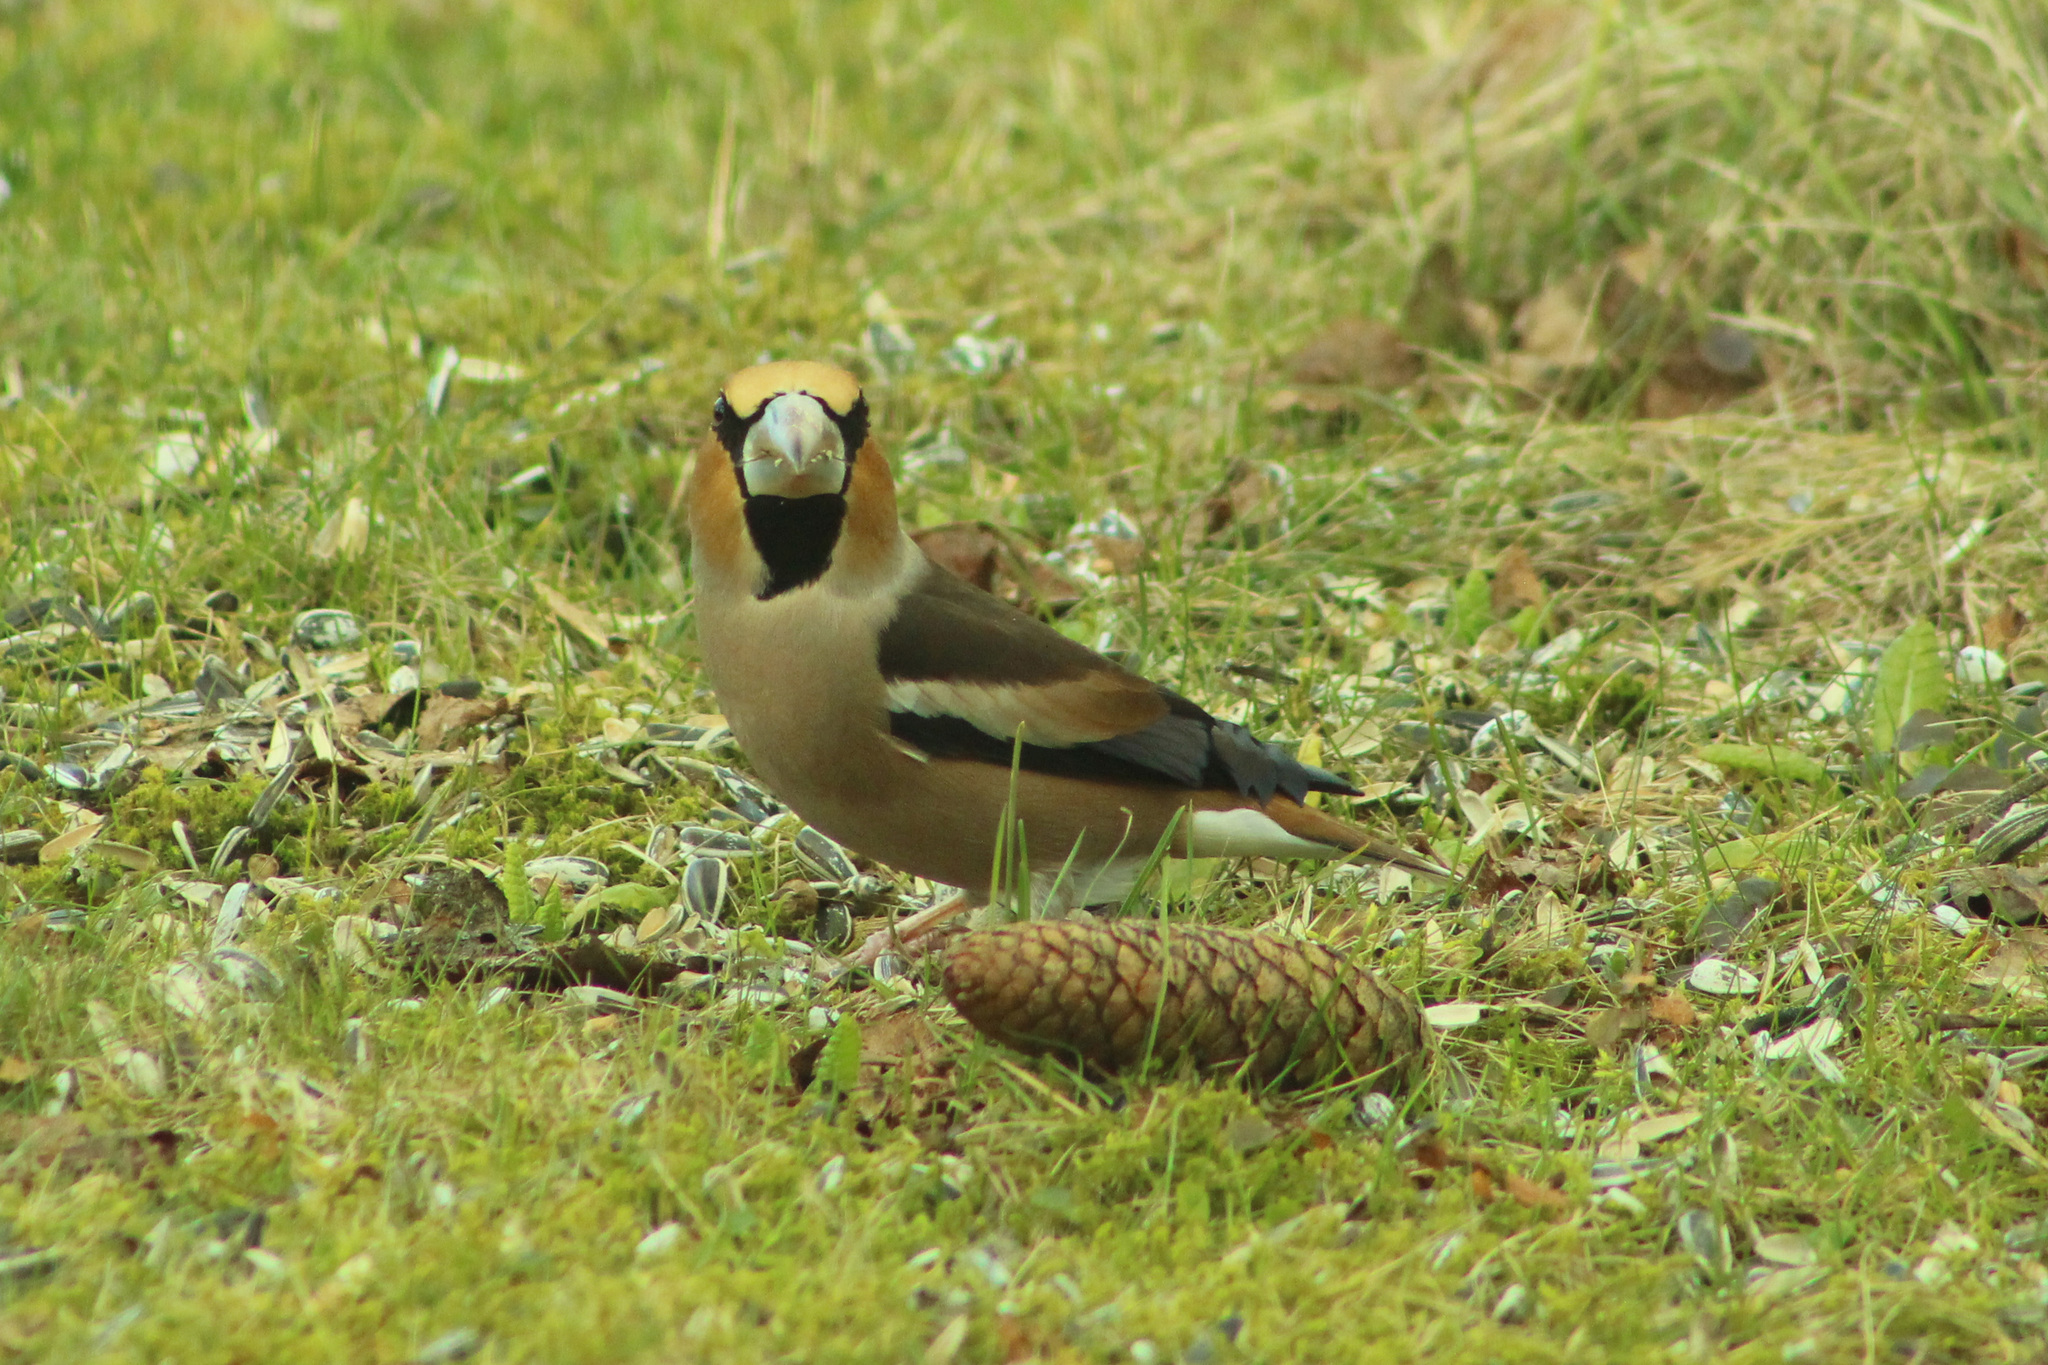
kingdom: Animalia
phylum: Chordata
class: Aves
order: Passeriformes
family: Fringillidae
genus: Coccothraustes
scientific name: Coccothraustes coccothraustes
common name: Hawfinch
